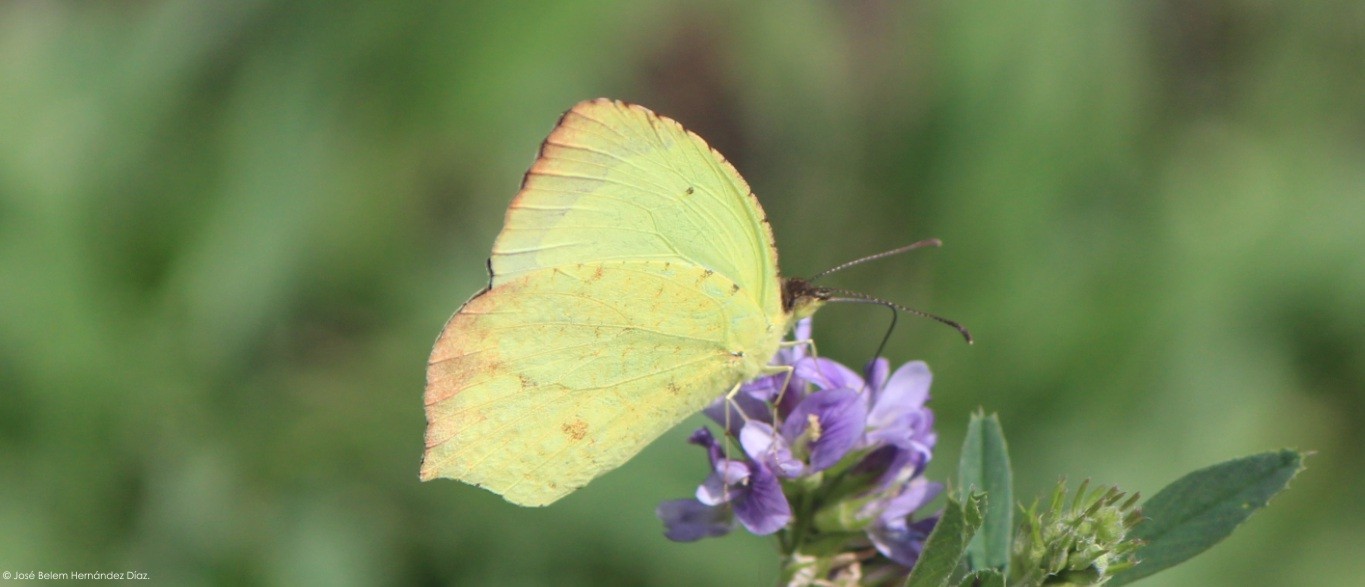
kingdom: Animalia
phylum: Arthropoda
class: Insecta
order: Lepidoptera
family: Pieridae
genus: Abaeis
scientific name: Abaeis salome
